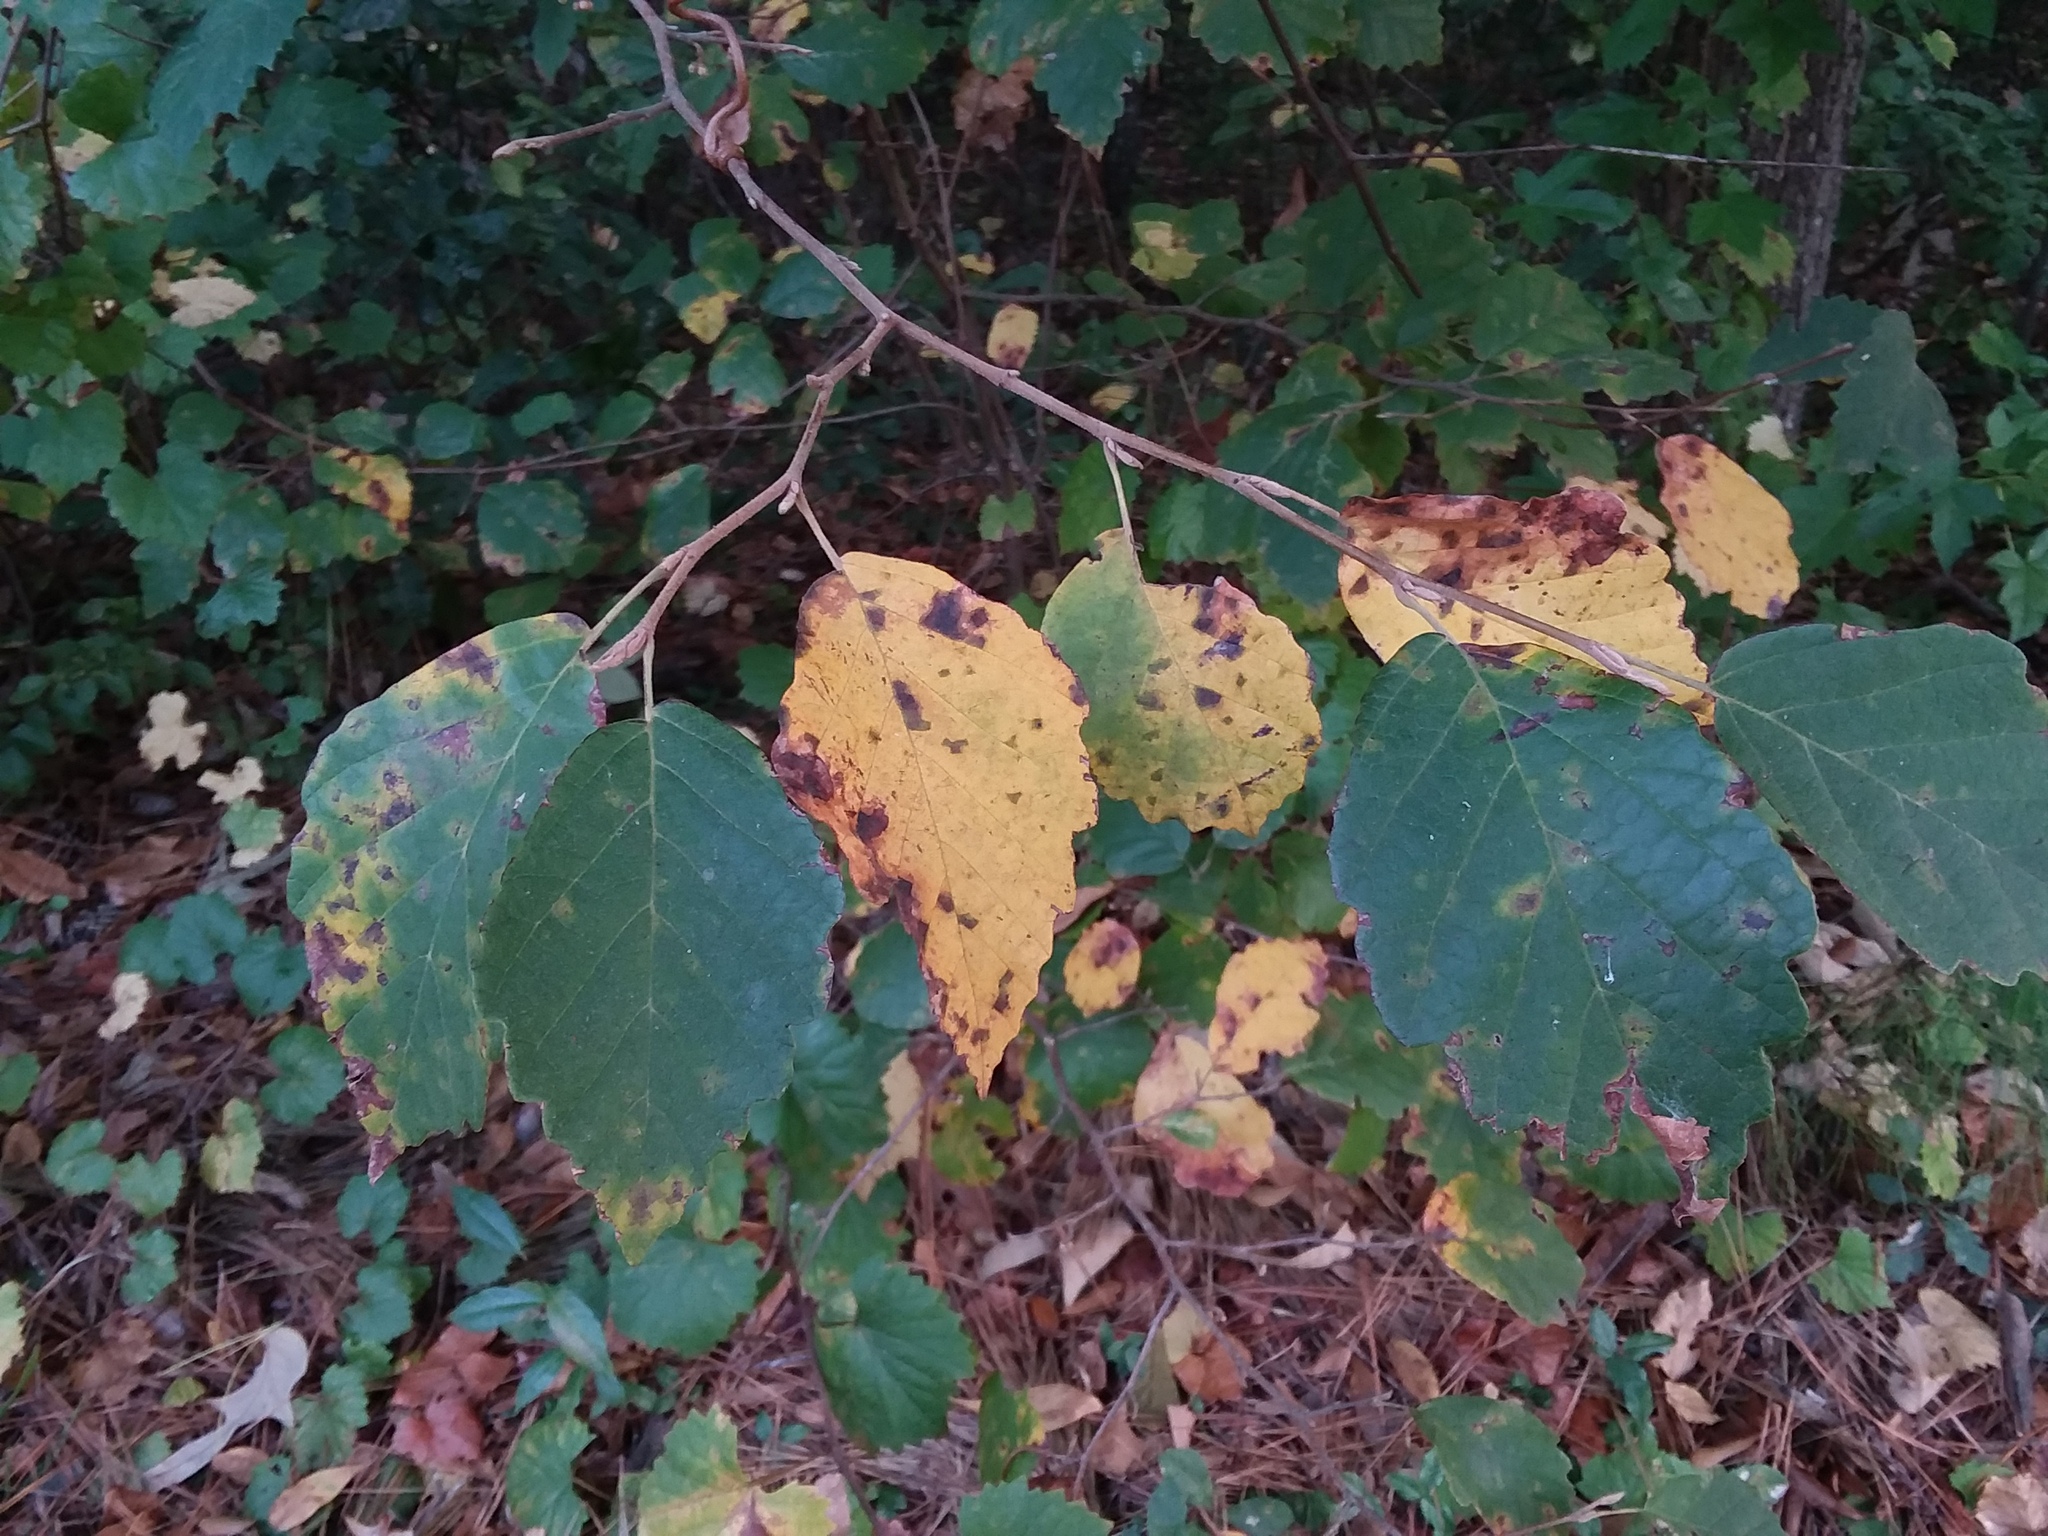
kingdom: Plantae
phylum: Tracheophyta
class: Magnoliopsida
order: Saxifragales
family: Hamamelidaceae
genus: Hamamelis
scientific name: Hamamelis virginiana
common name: Witch-hazel
